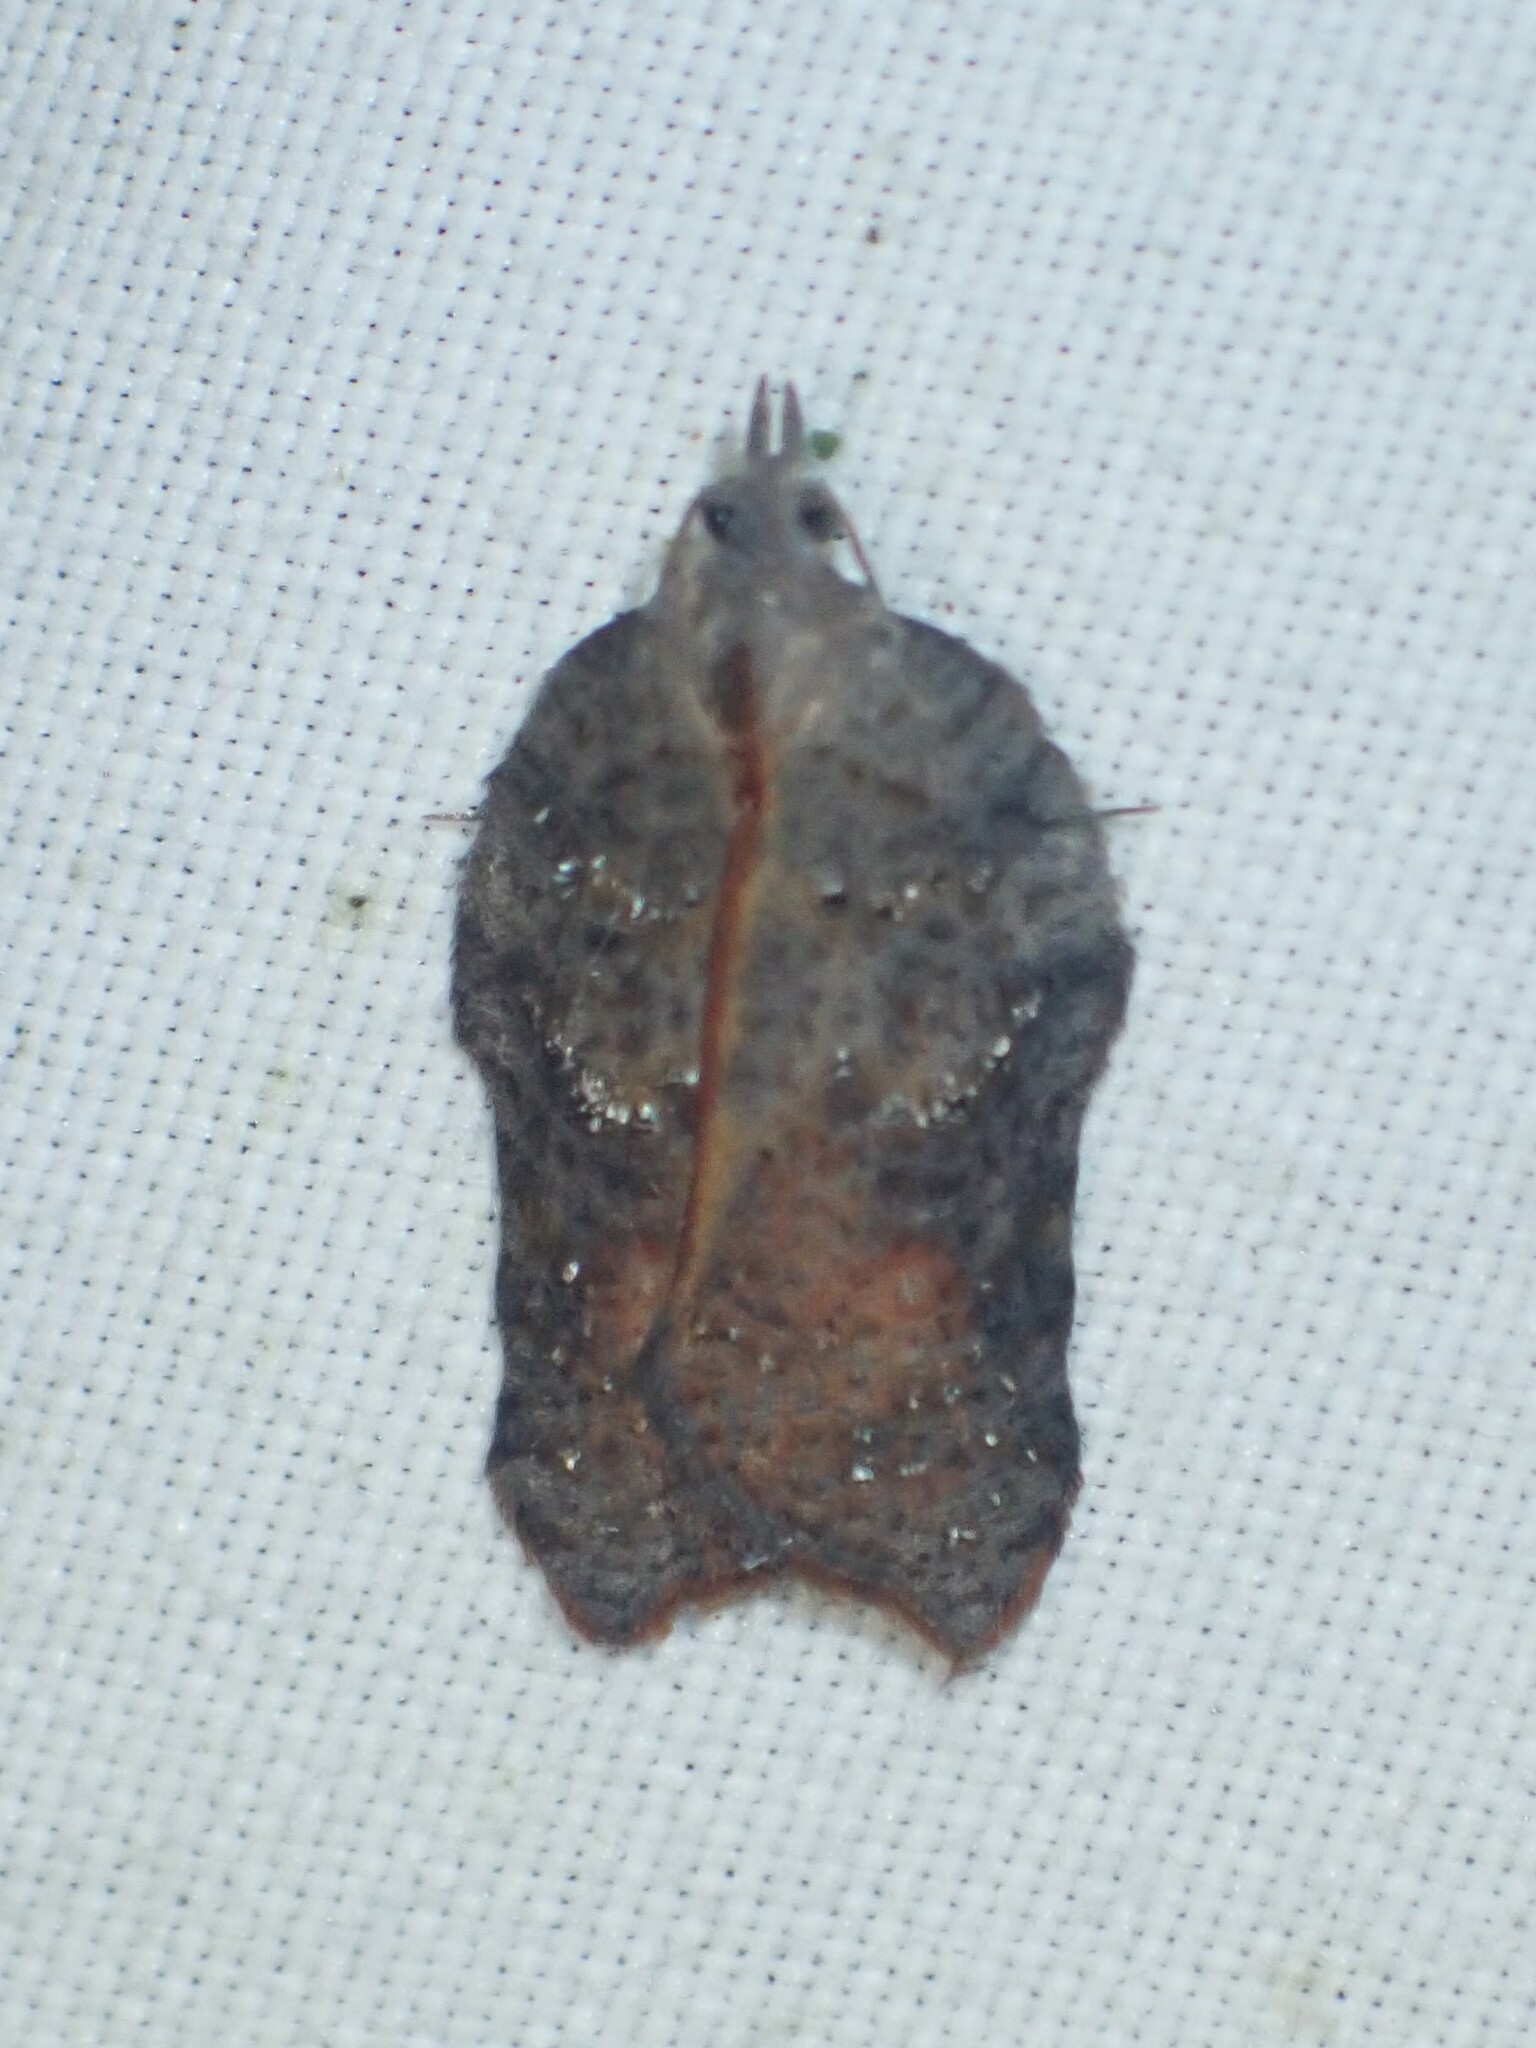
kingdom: Animalia
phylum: Arthropoda
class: Insecta
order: Lepidoptera
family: Tortricidae
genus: Acleris
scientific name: Acleris effractana
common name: Hook-winged tortrix moth
